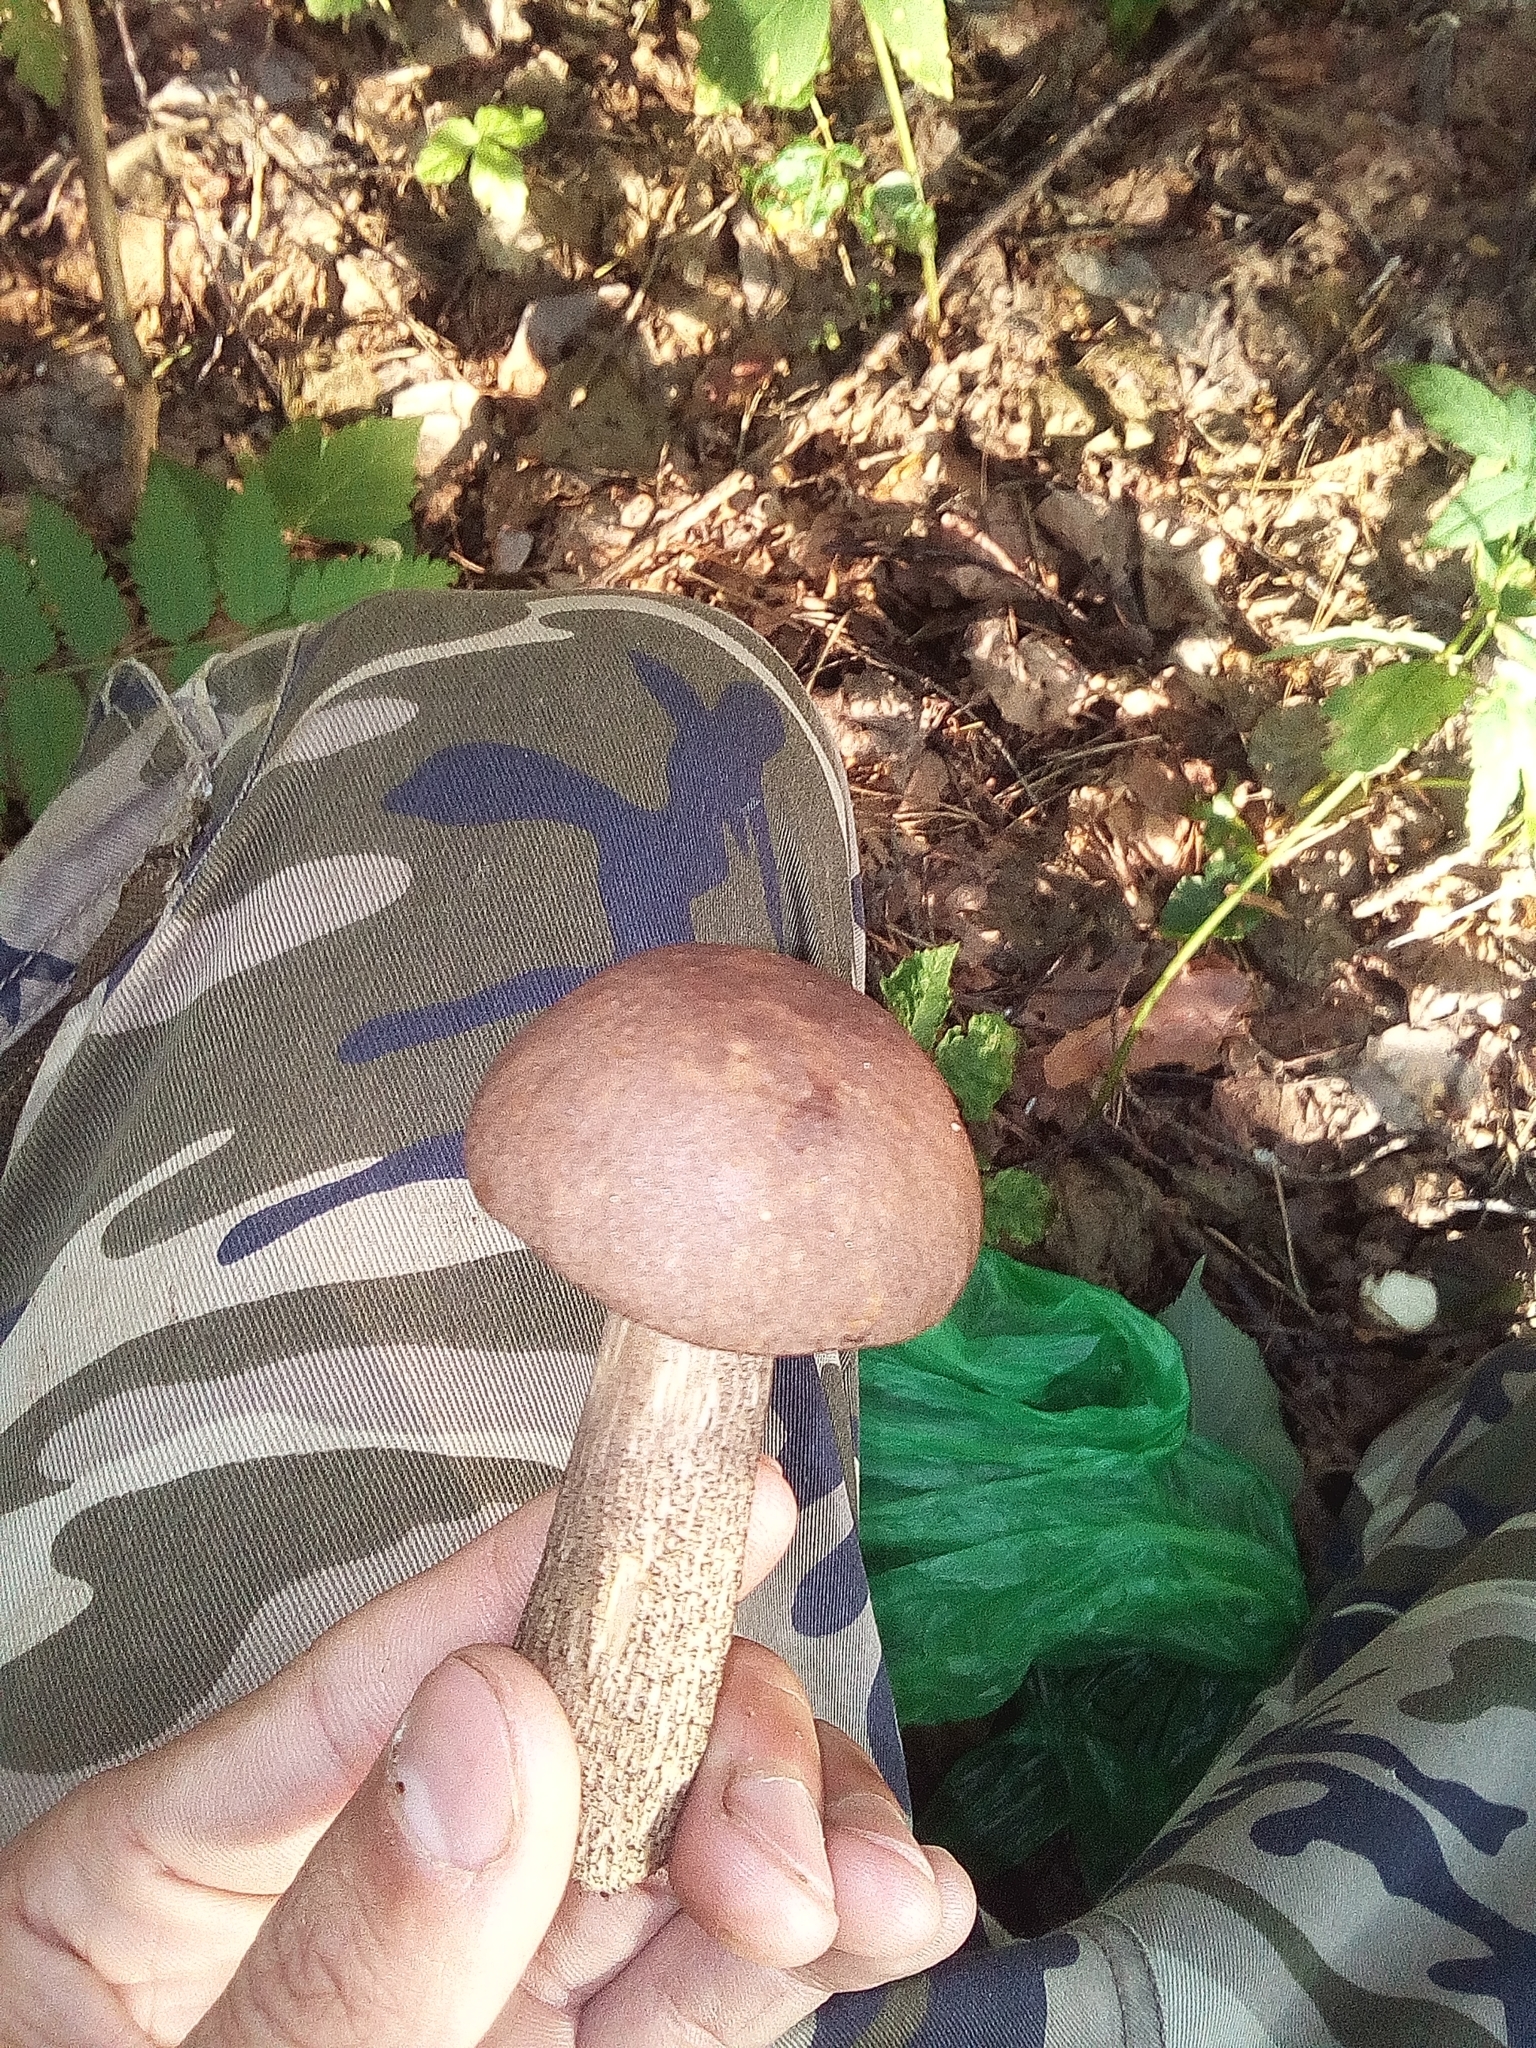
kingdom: Fungi
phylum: Basidiomycota
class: Agaricomycetes
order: Boletales
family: Boletaceae
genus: Leccinum
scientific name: Leccinum scabrum
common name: Blushing bolete
